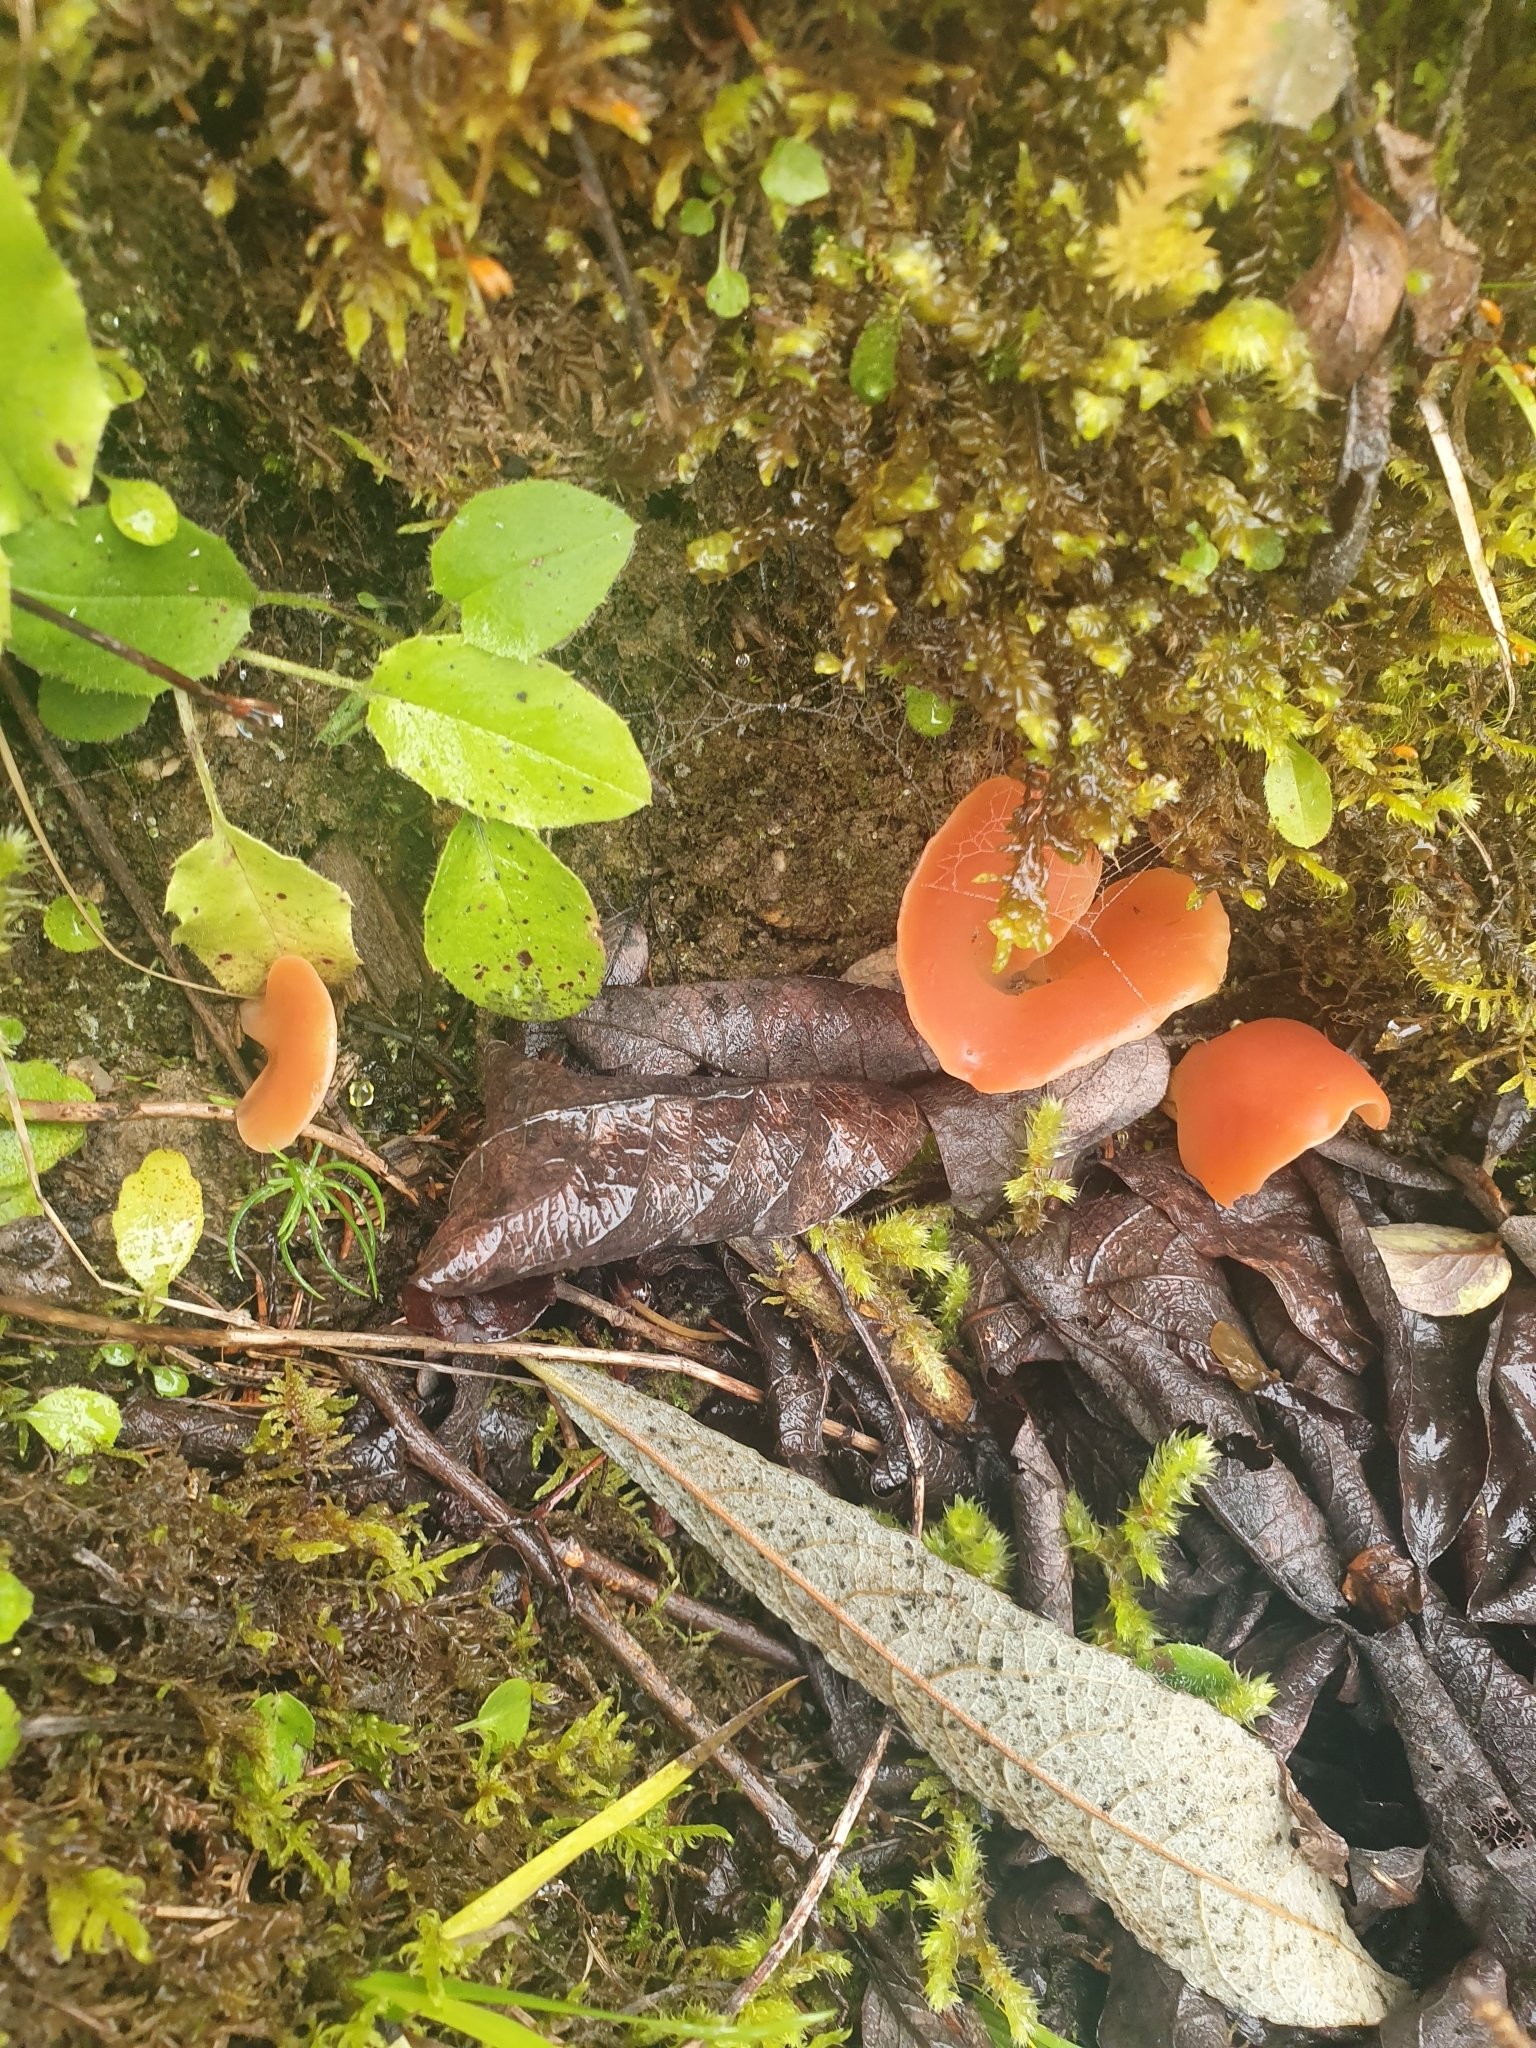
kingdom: Fungi
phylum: Basidiomycota
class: Agaricomycetes
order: Auriculariales
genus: Guepinia
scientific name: Guepinia helvelloides
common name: Salmon salad
